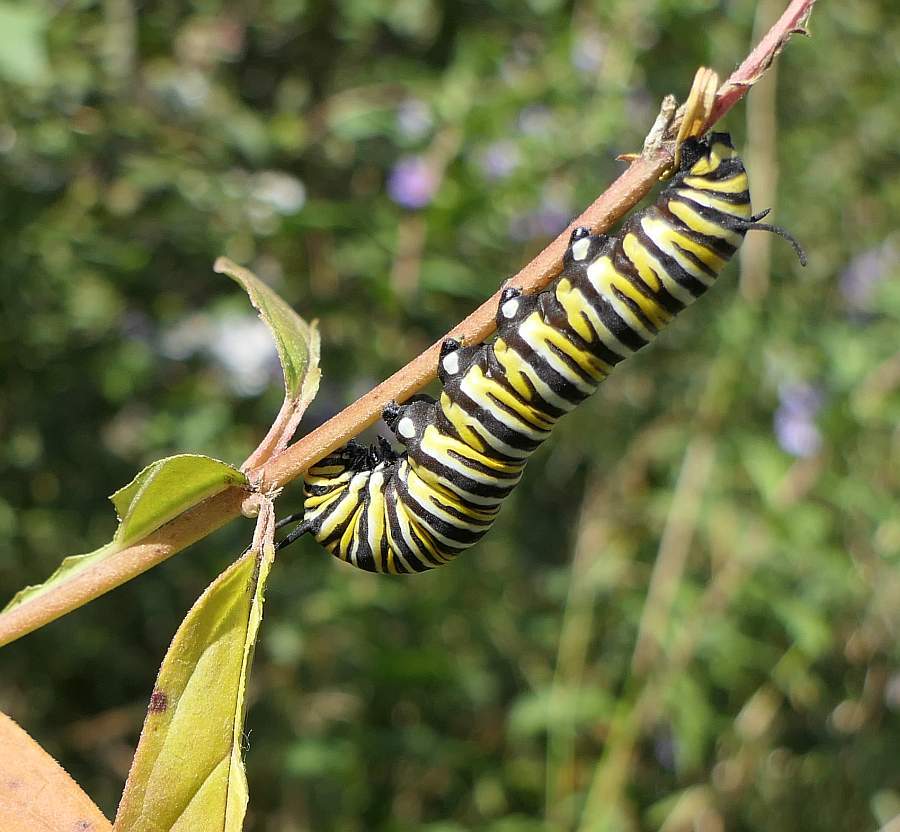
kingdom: Animalia
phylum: Arthropoda
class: Insecta
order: Lepidoptera
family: Nymphalidae
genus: Danaus
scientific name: Danaus plexippus
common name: Monarch
